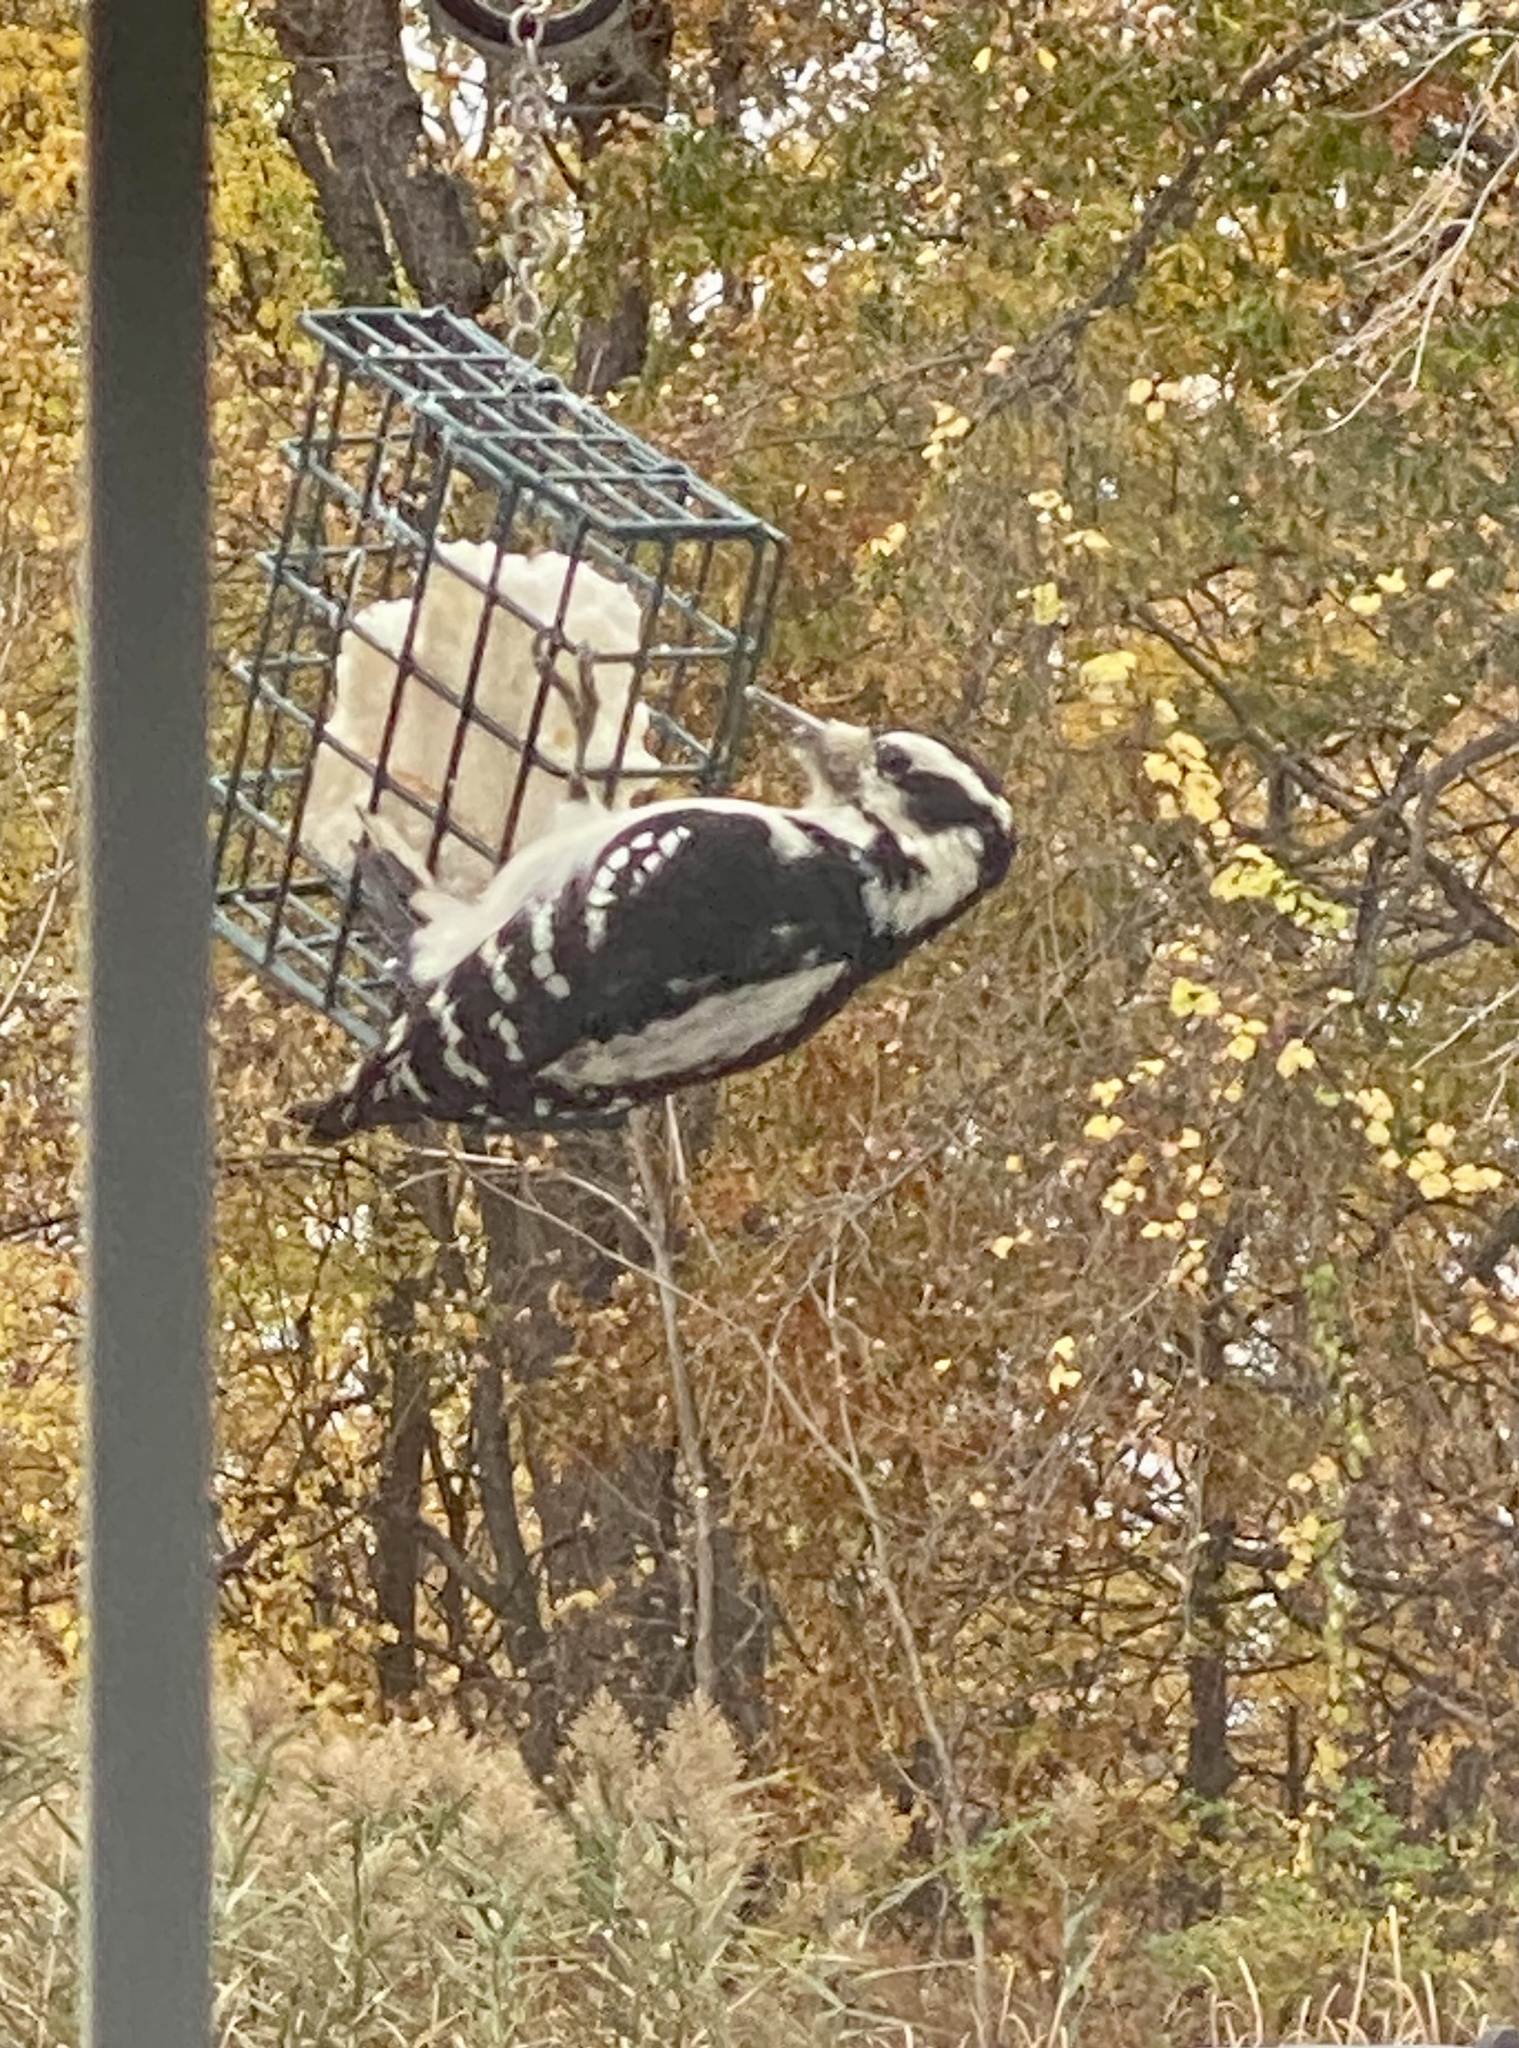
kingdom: Animalia
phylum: Chordata
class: Aves
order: Piciformes
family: Picidae
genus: Leuconotopicus
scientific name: Leuconotopicus villosus
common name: Hairy woodpecker
